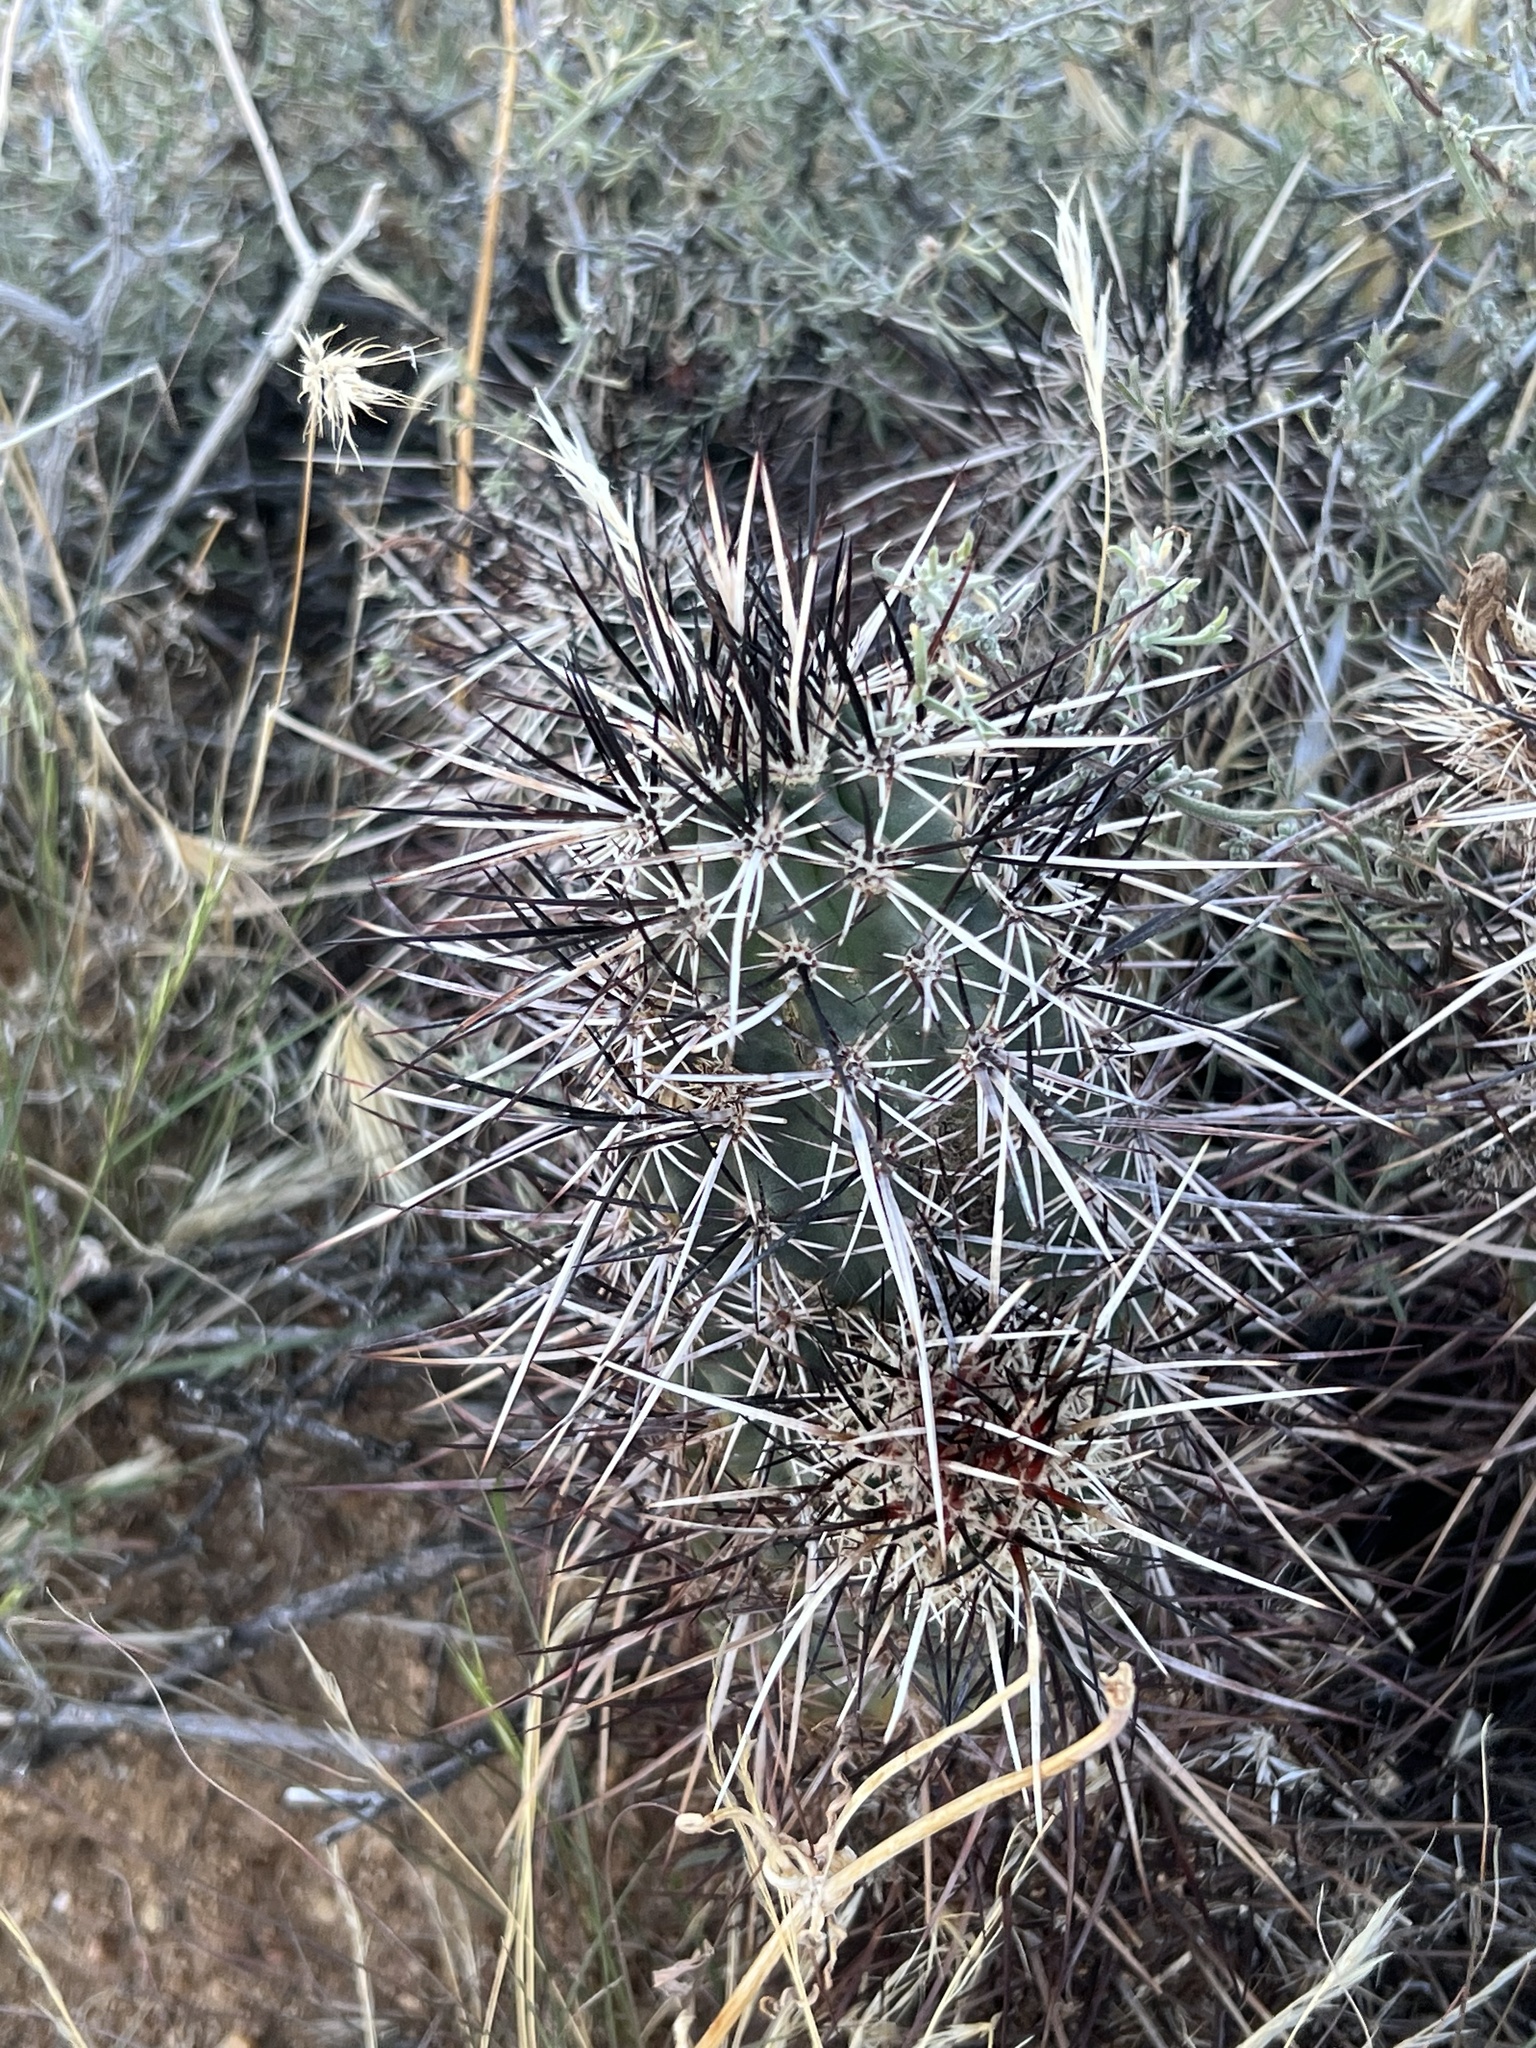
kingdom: Plantae
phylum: Tracheophyta
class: Magnoliopsida
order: Caryophyllales
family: Cactaceae
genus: Echinocereus
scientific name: Echinocereus engelmannii
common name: Engelmann's hedgehog cactus
